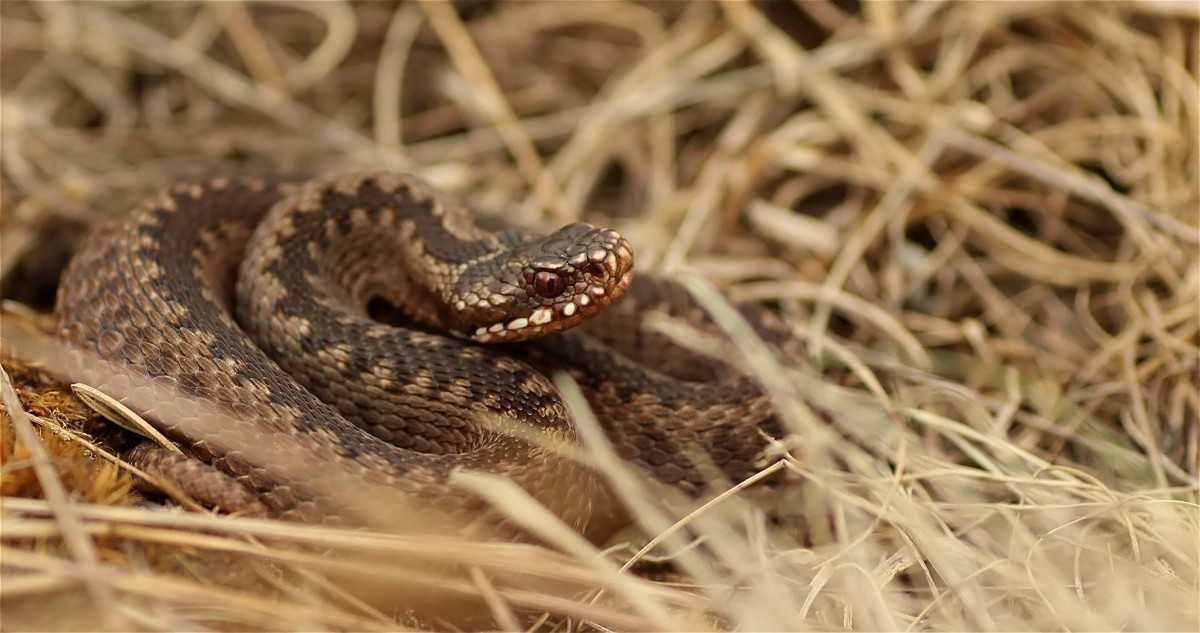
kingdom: Animalia
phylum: Chordata
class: Squamata
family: Viperidae
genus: Vipera
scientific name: Vipera berus
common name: Adder
